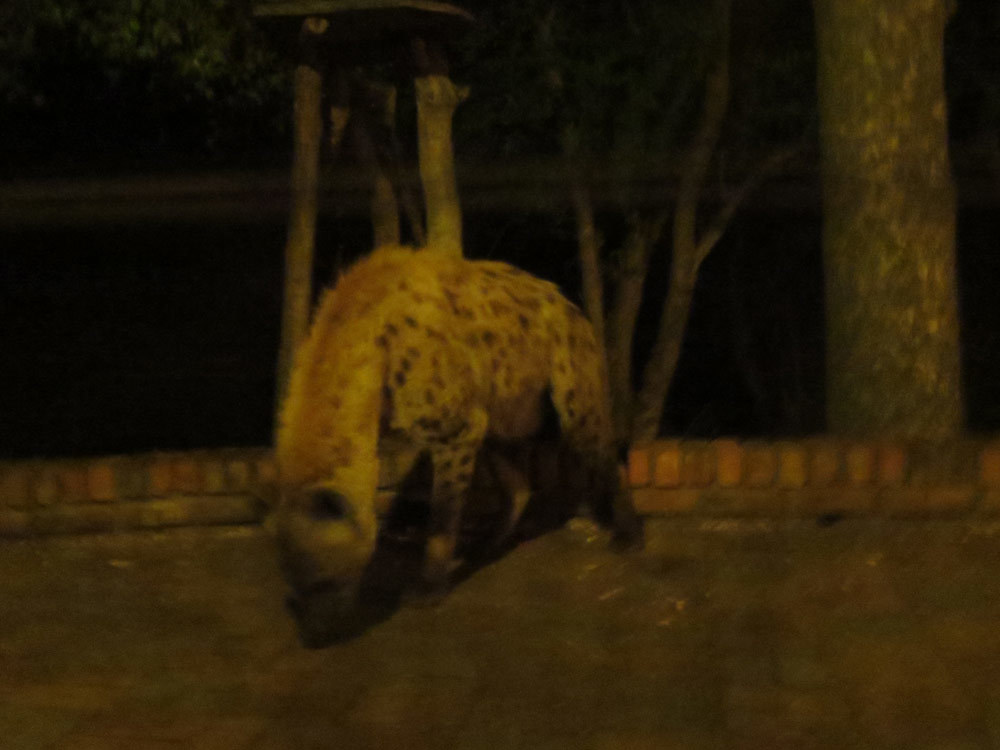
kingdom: Animalia
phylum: Chordata
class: Mammalia
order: Carnivora
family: Hyaenidae
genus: Crocuta
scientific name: Crocuta crocuta
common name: Spotted hyaena
